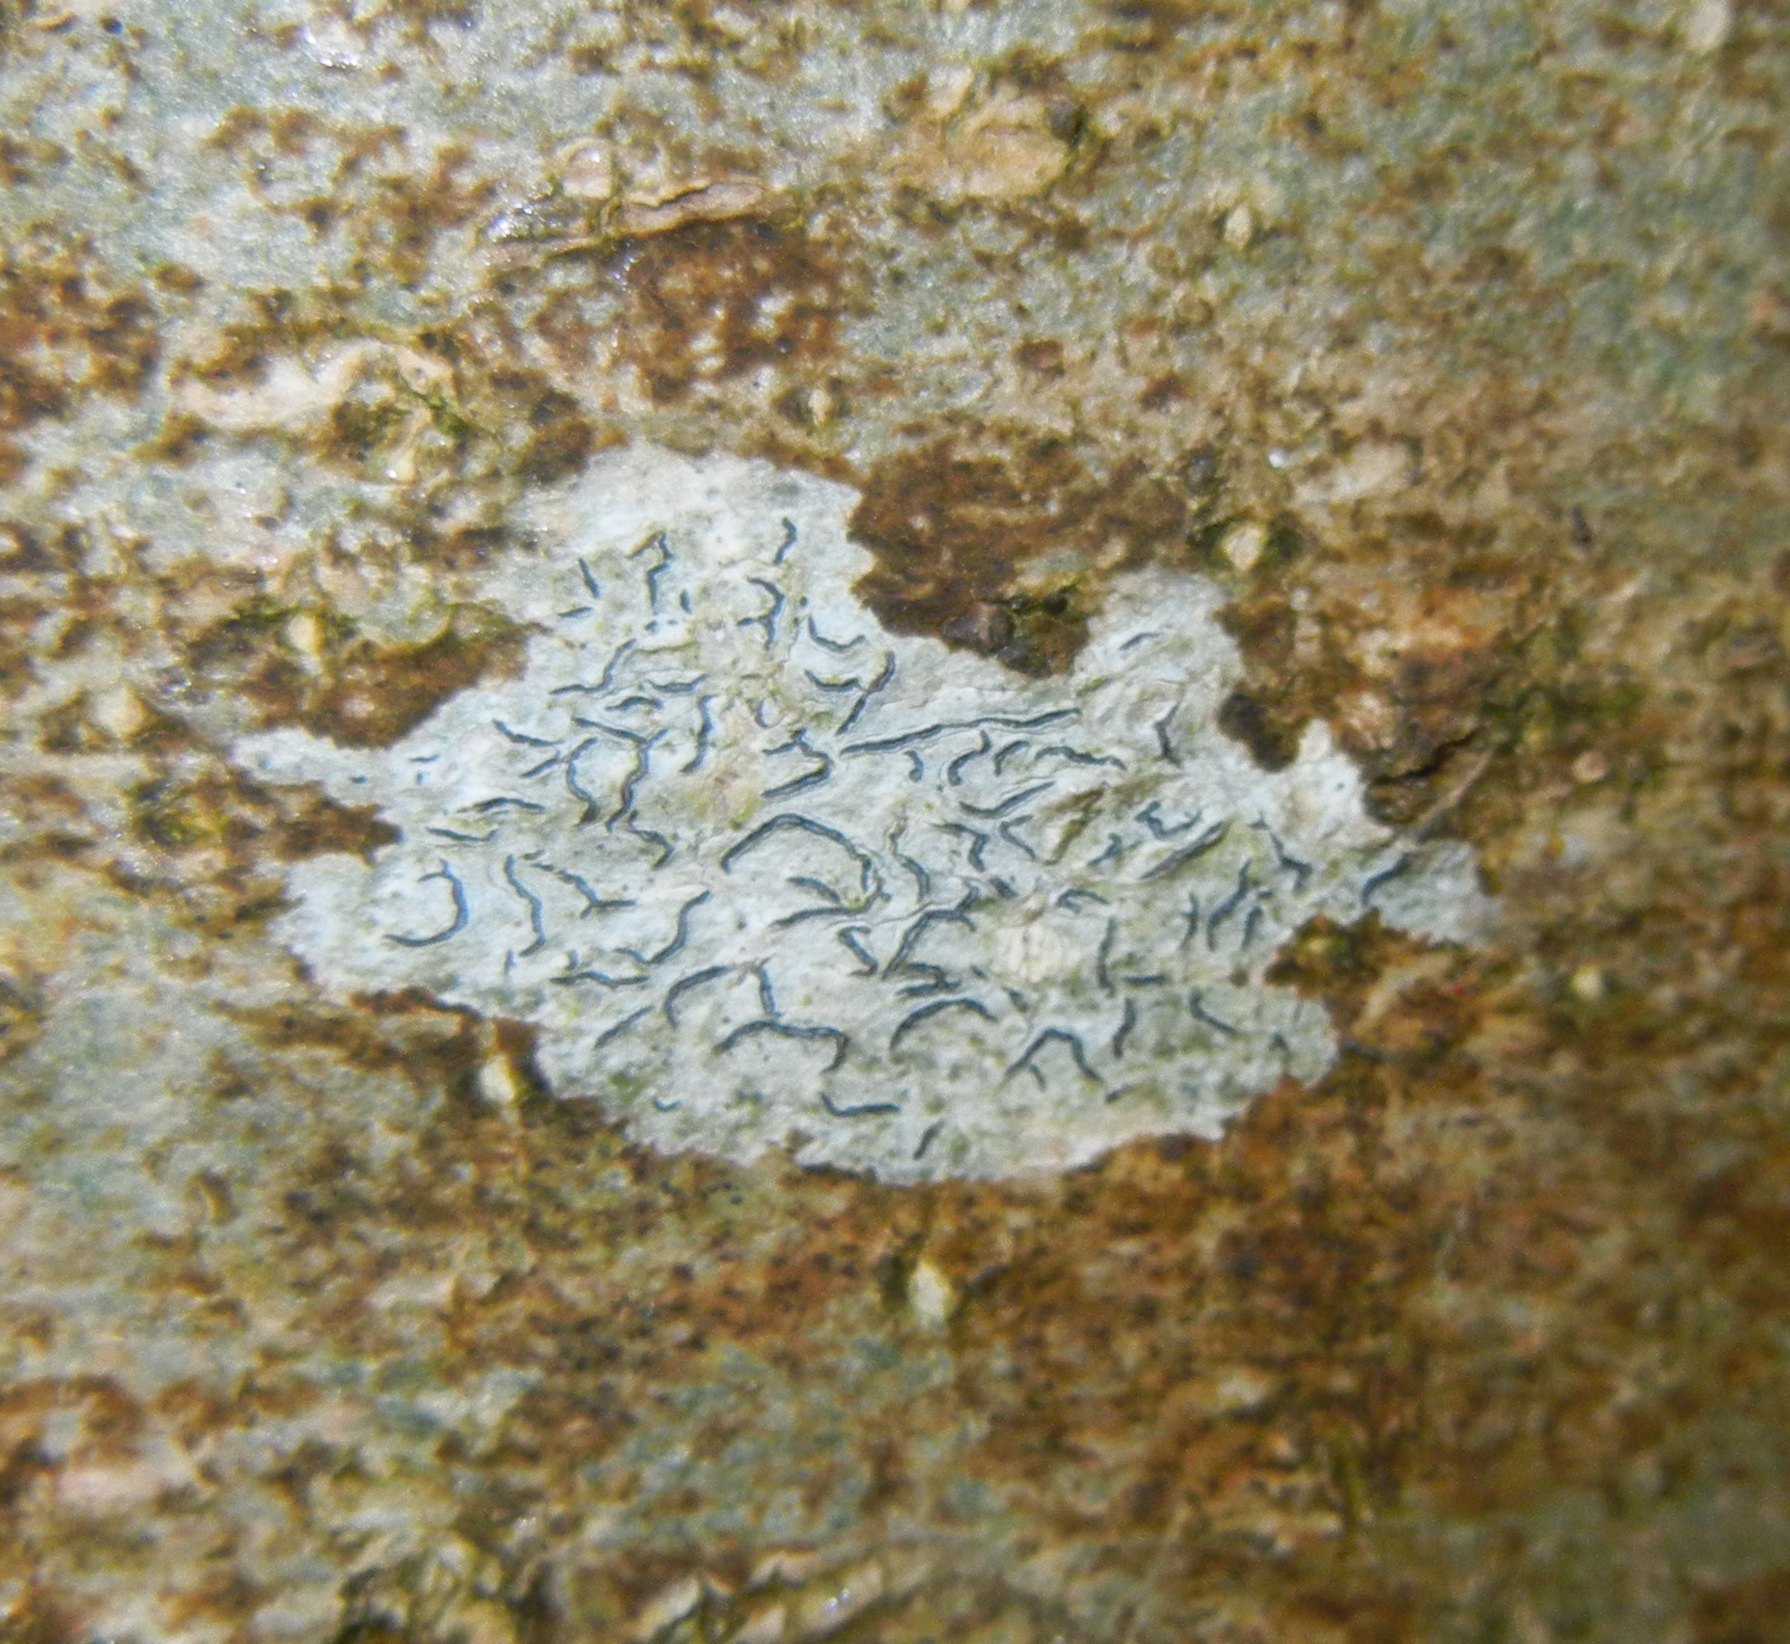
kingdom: Fungi
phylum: Ascomycota
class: Lecanoromycetes
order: Ostropales
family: Graphidaceae
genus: Graphis
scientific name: Graphis scripta
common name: Script lichen
